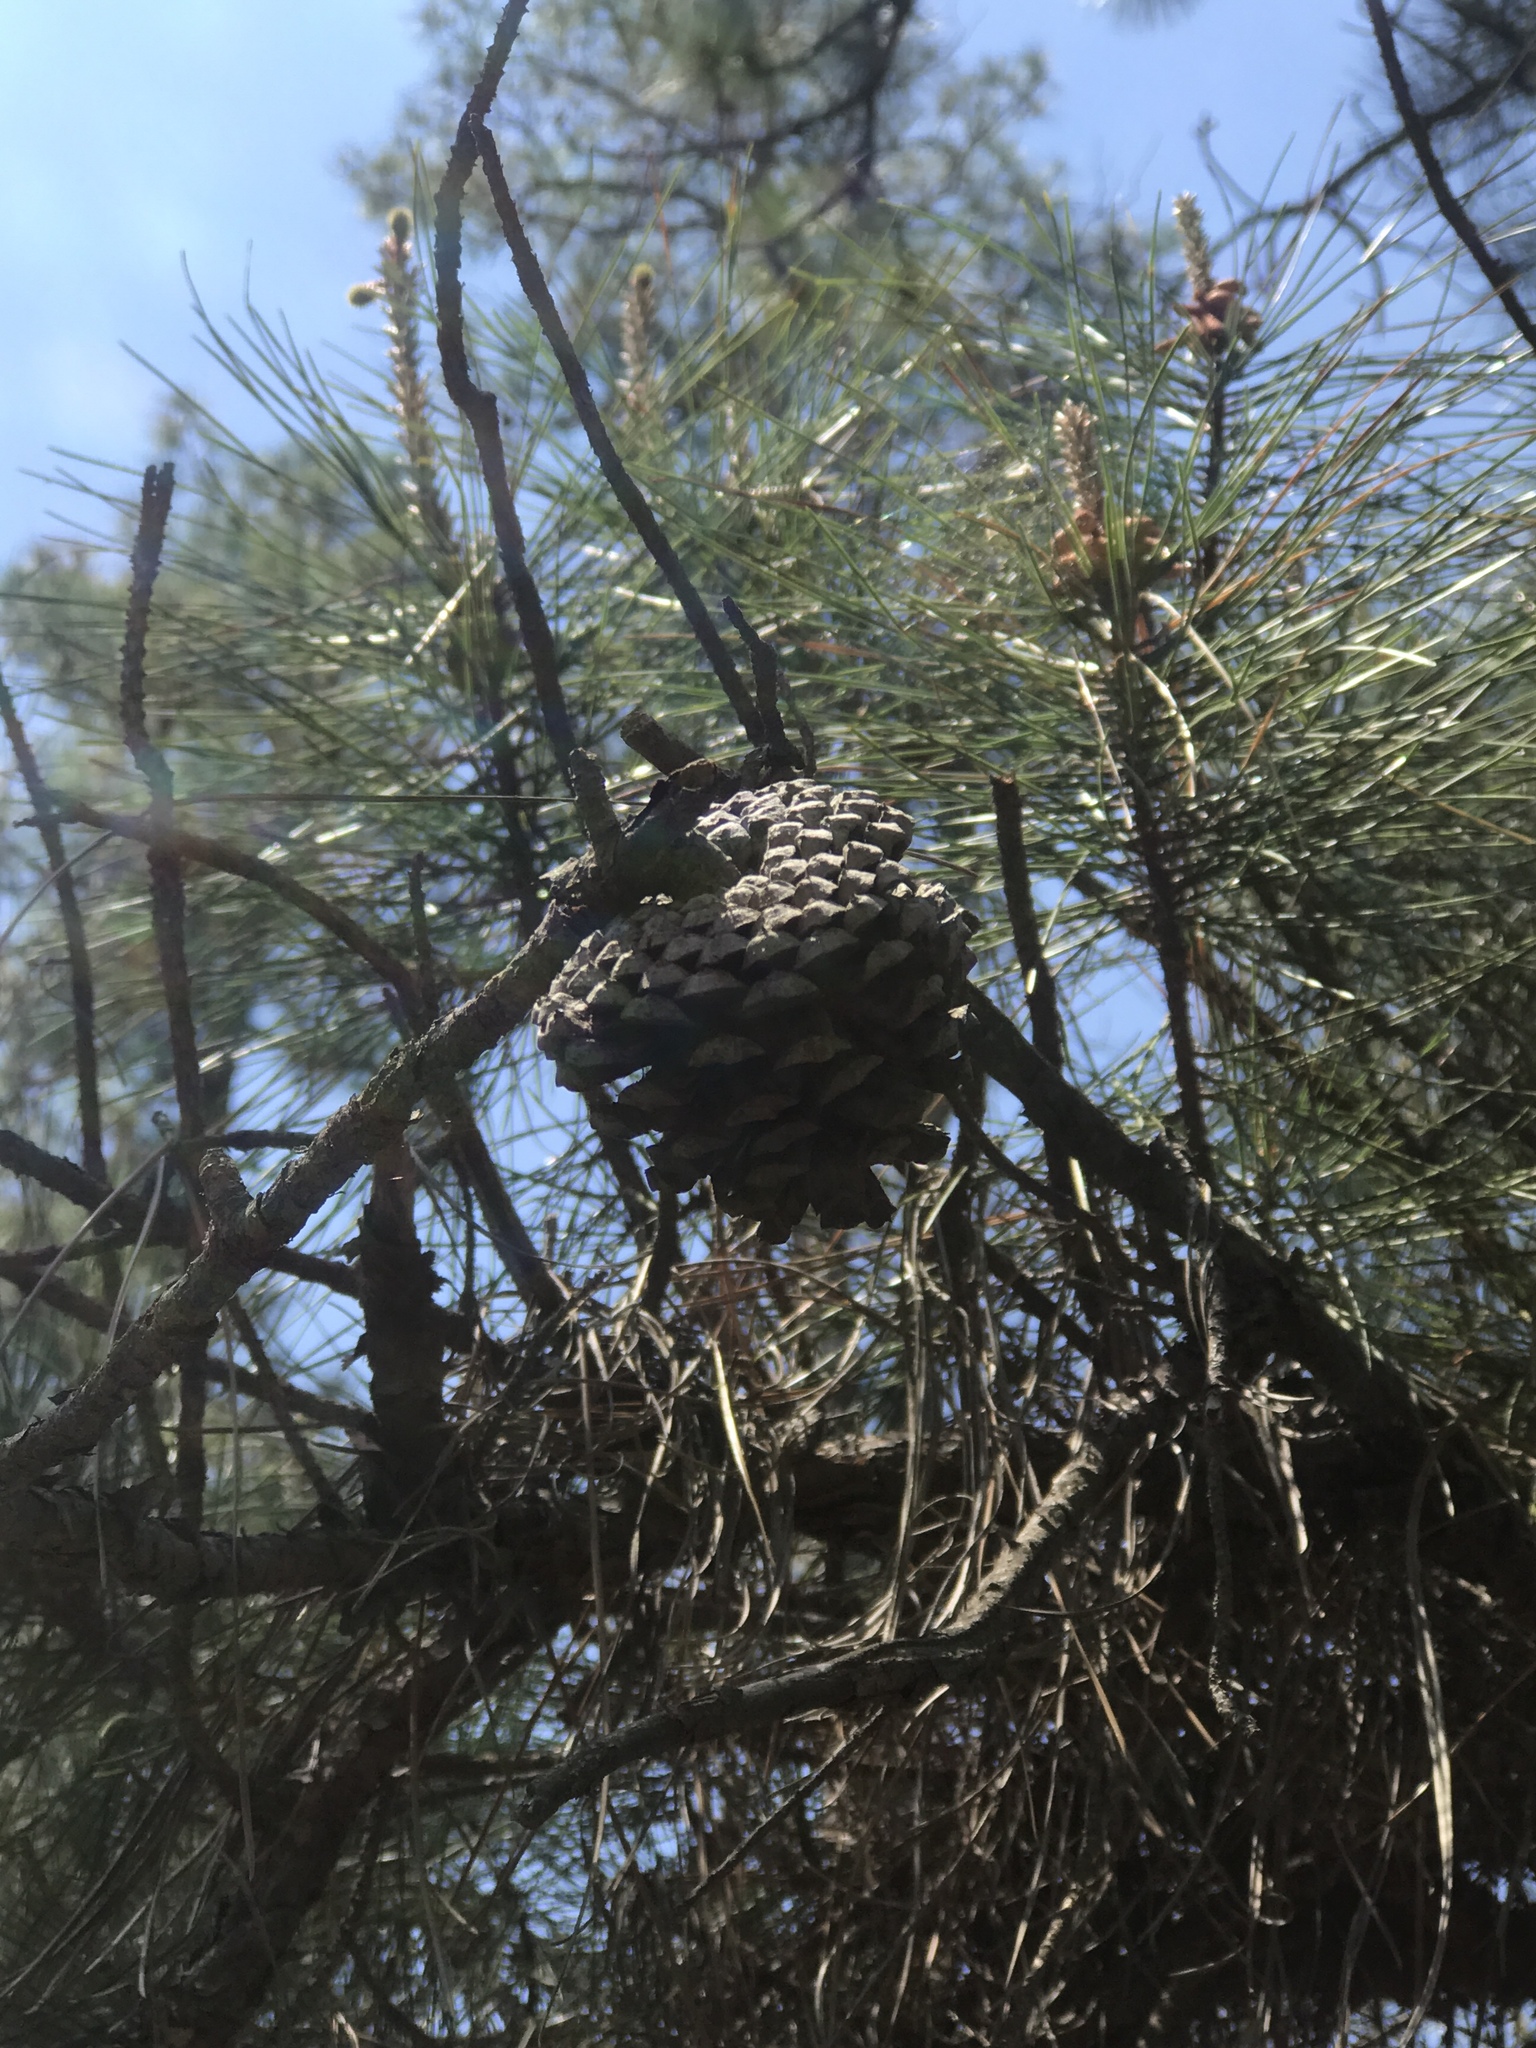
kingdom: Plantae
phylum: Tracheophyta
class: Pinopsida
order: Pinales
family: Pinaceae
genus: Pinus
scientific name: Pinus serotina
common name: Marsh pine
